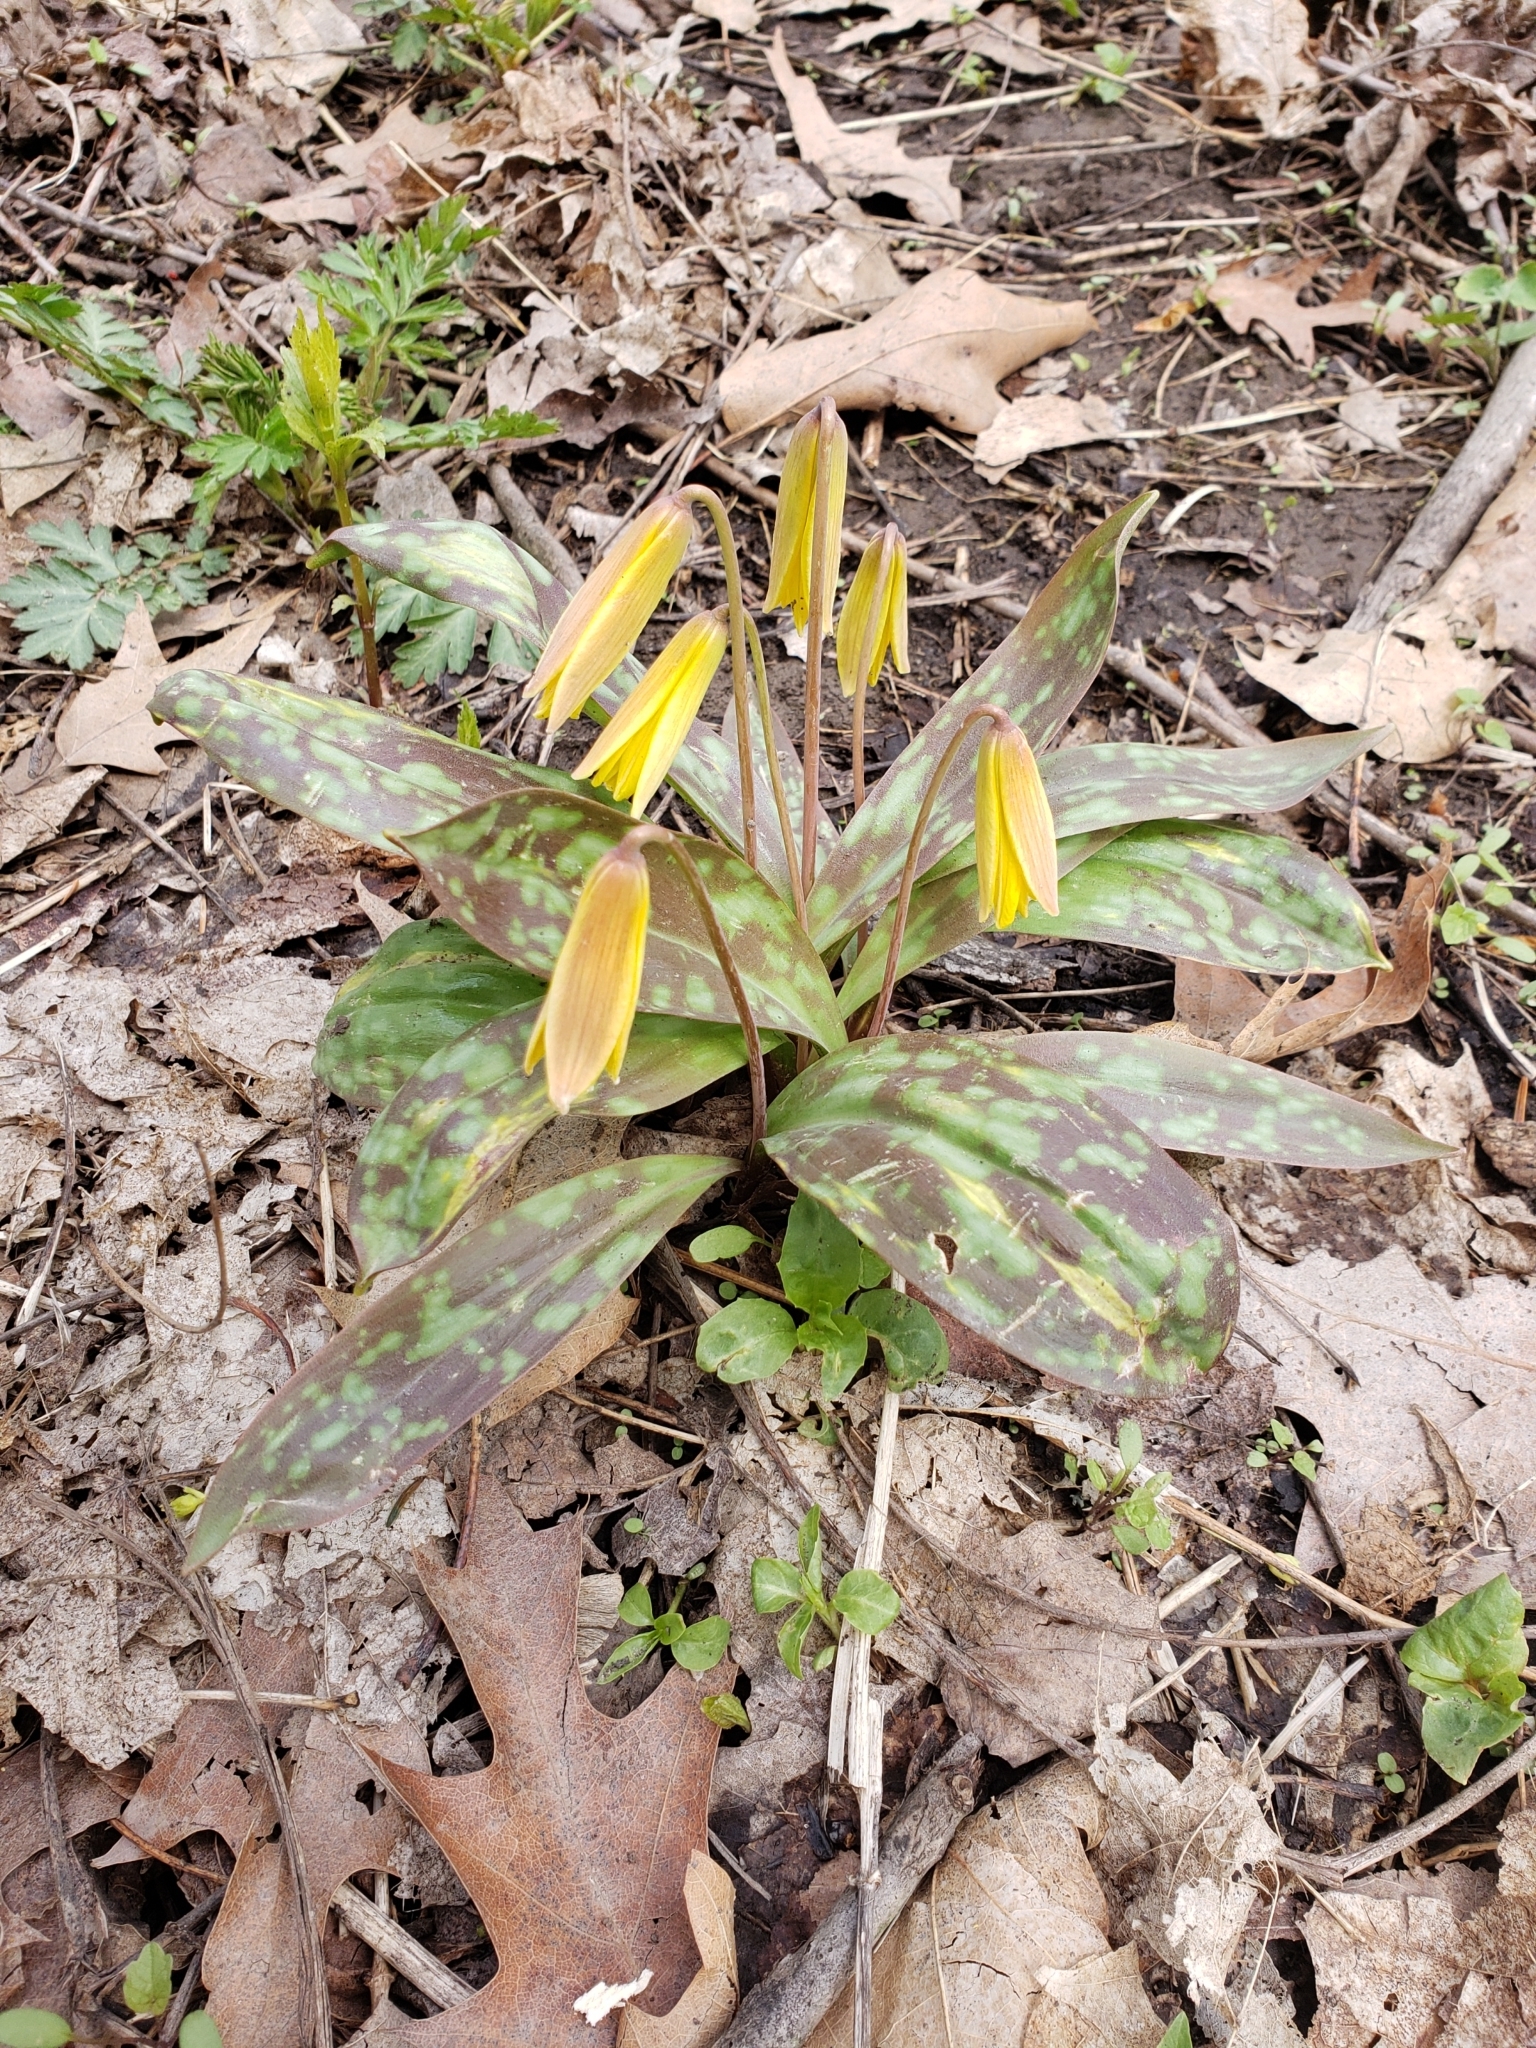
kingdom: Plantae
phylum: Tracheophyta
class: Liliopsida
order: Liliales
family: Liliaceae
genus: Erythronium
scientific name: Erythronium americanum
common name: Yellow adder's-tongue
